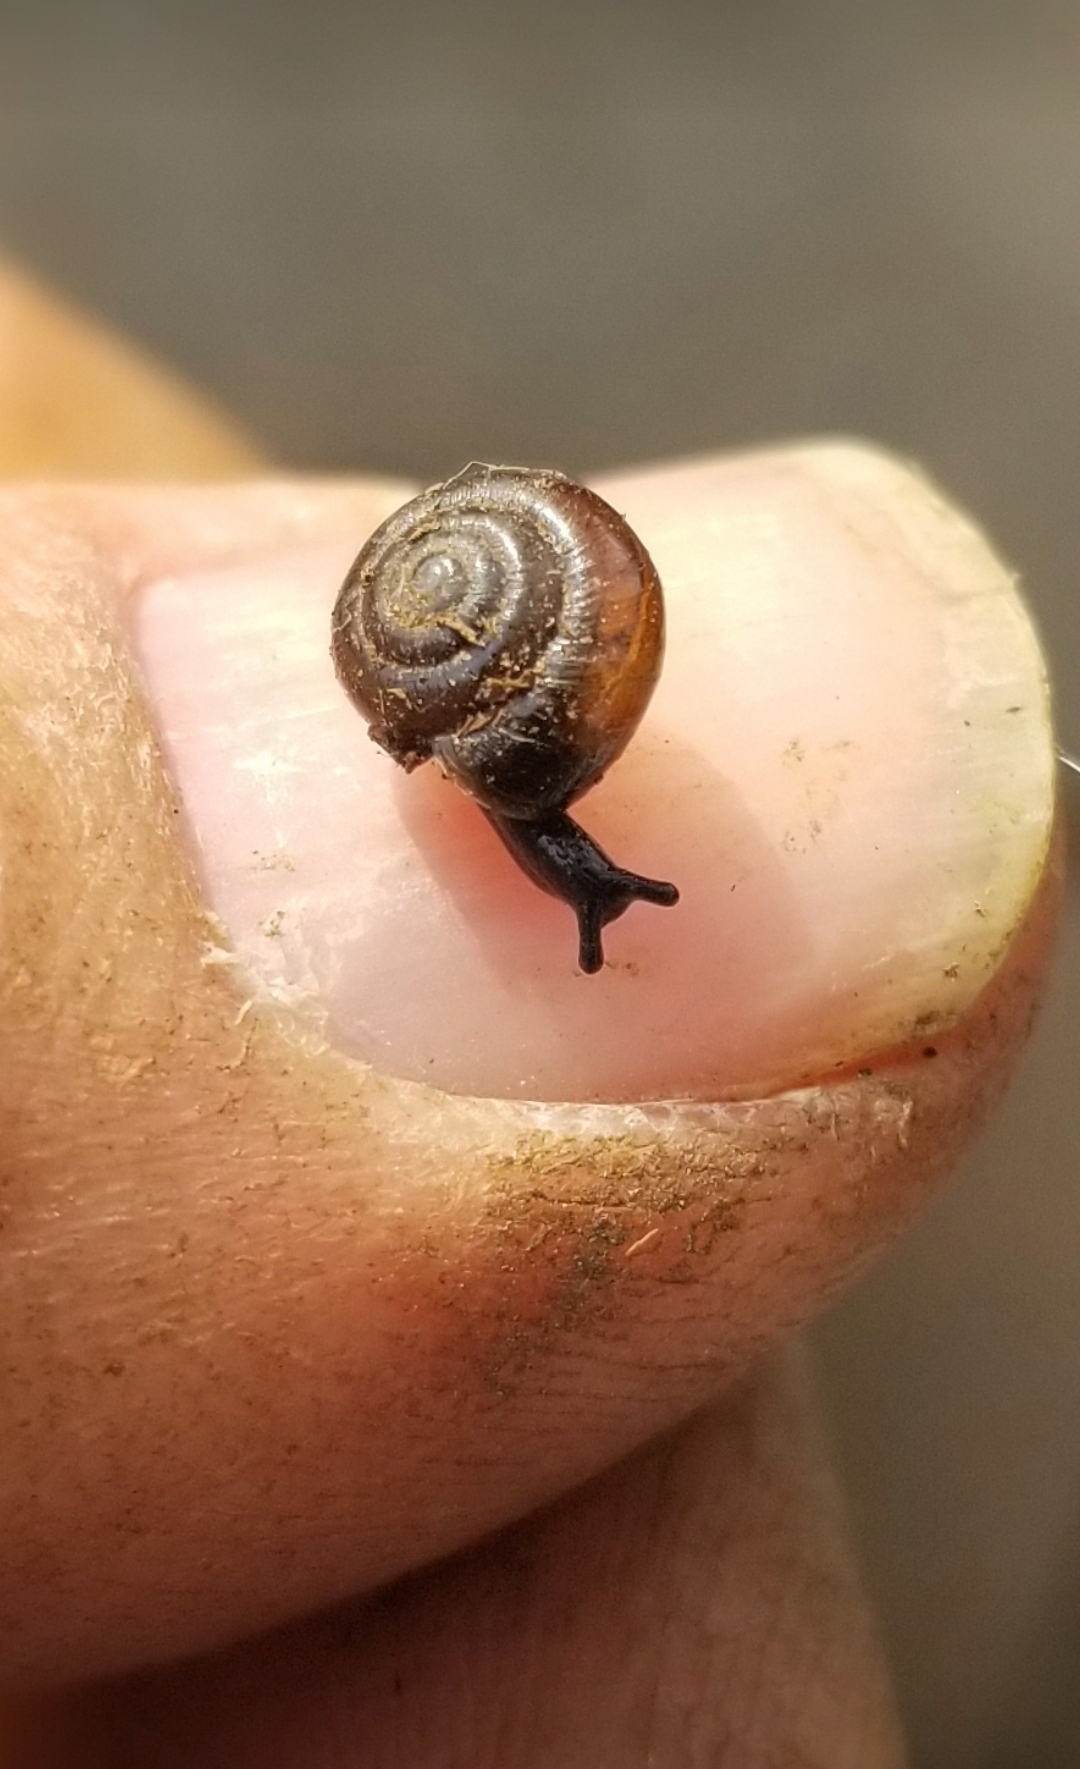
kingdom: Animalia
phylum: Mollusca
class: Gastropoda
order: Stylommatophora
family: Gastrodontidae
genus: Zonitoides
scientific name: Zonitoides arboreus
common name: Quick gloss
